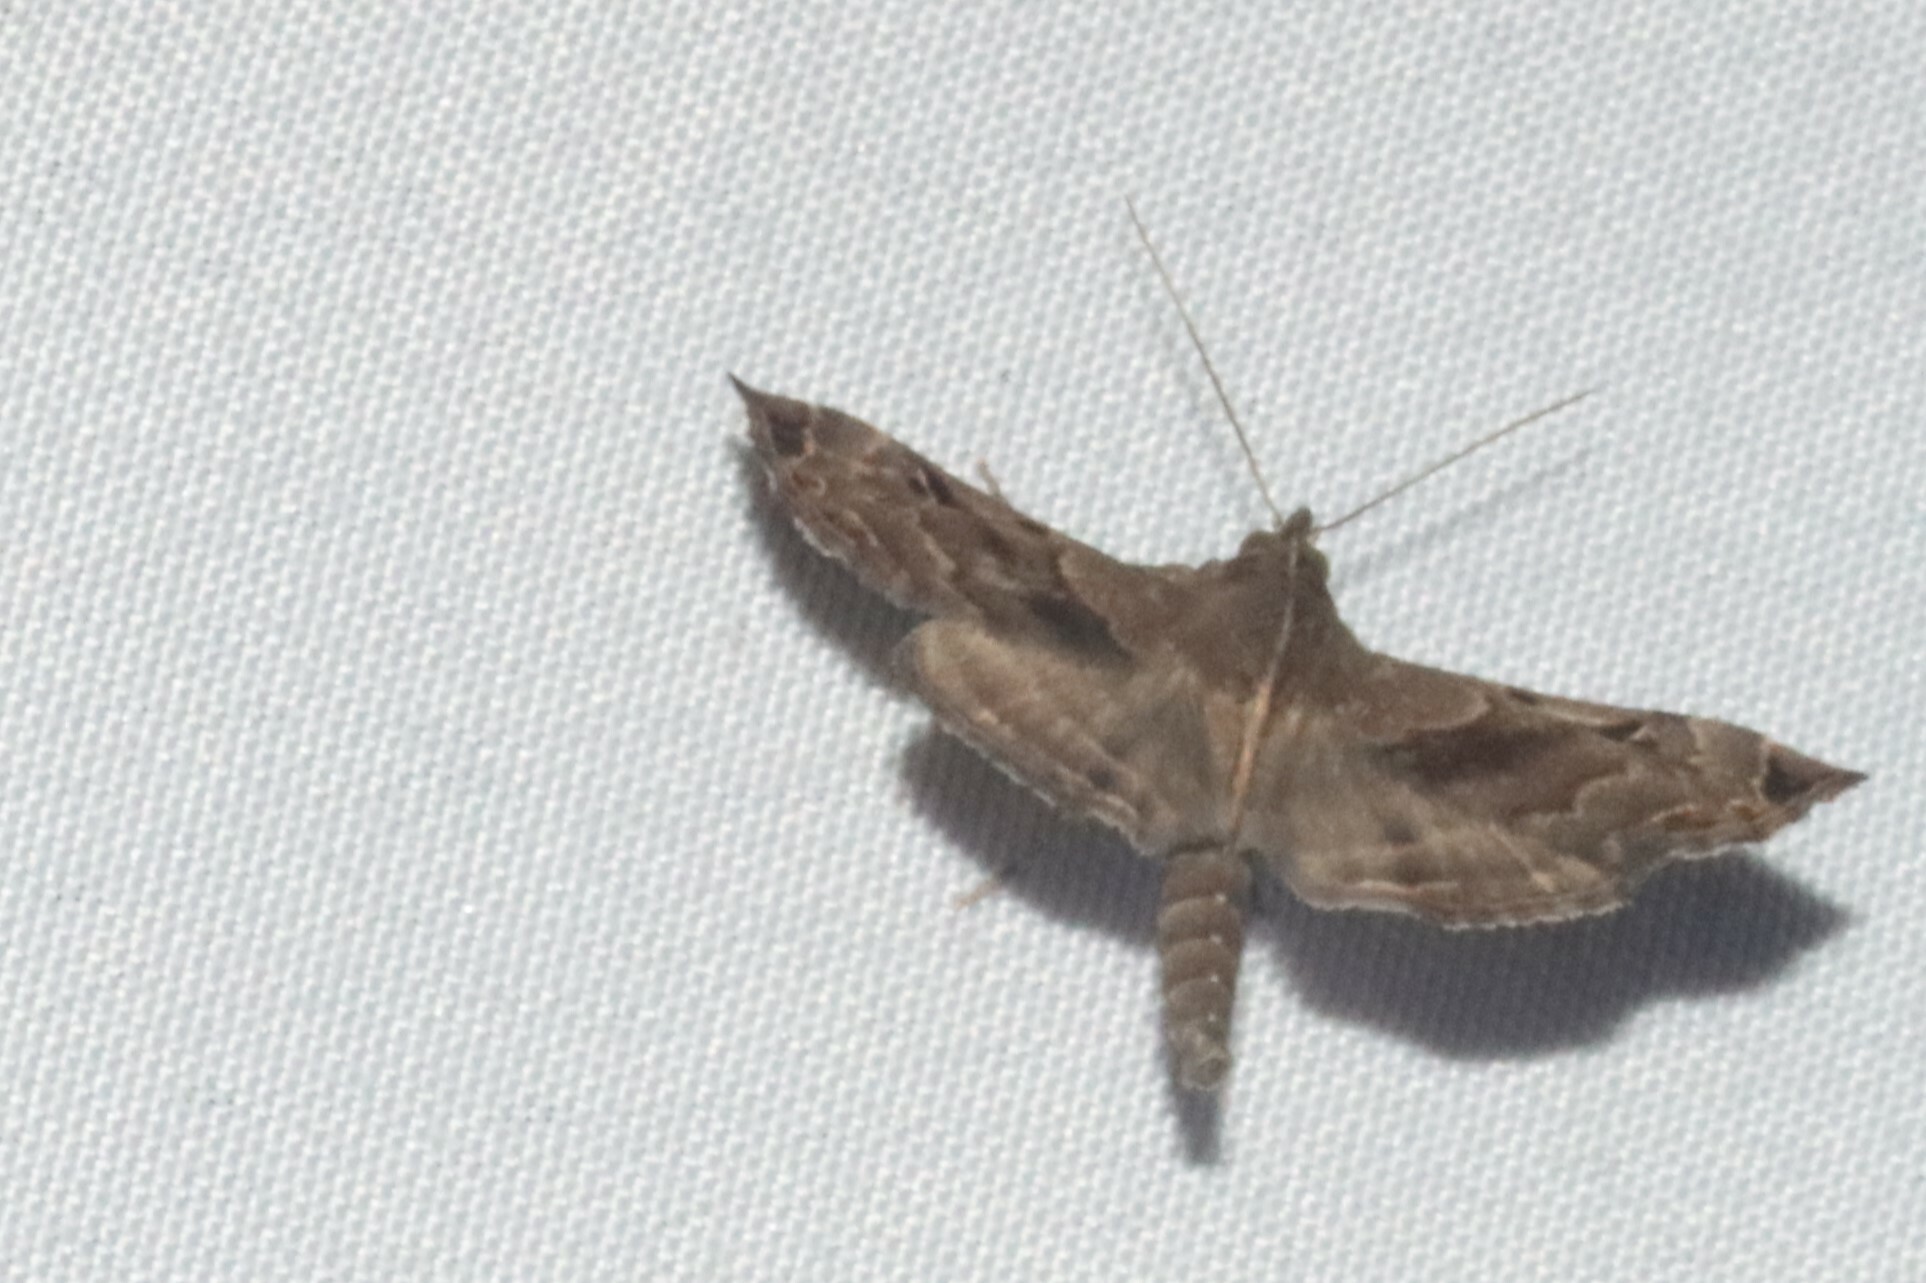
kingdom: Animalia
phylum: Arthropoda
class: Insecta
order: Lepidoptera
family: Erebidae
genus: Palthis
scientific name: Palthis asopialis
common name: Faint-spotted palthis moth
